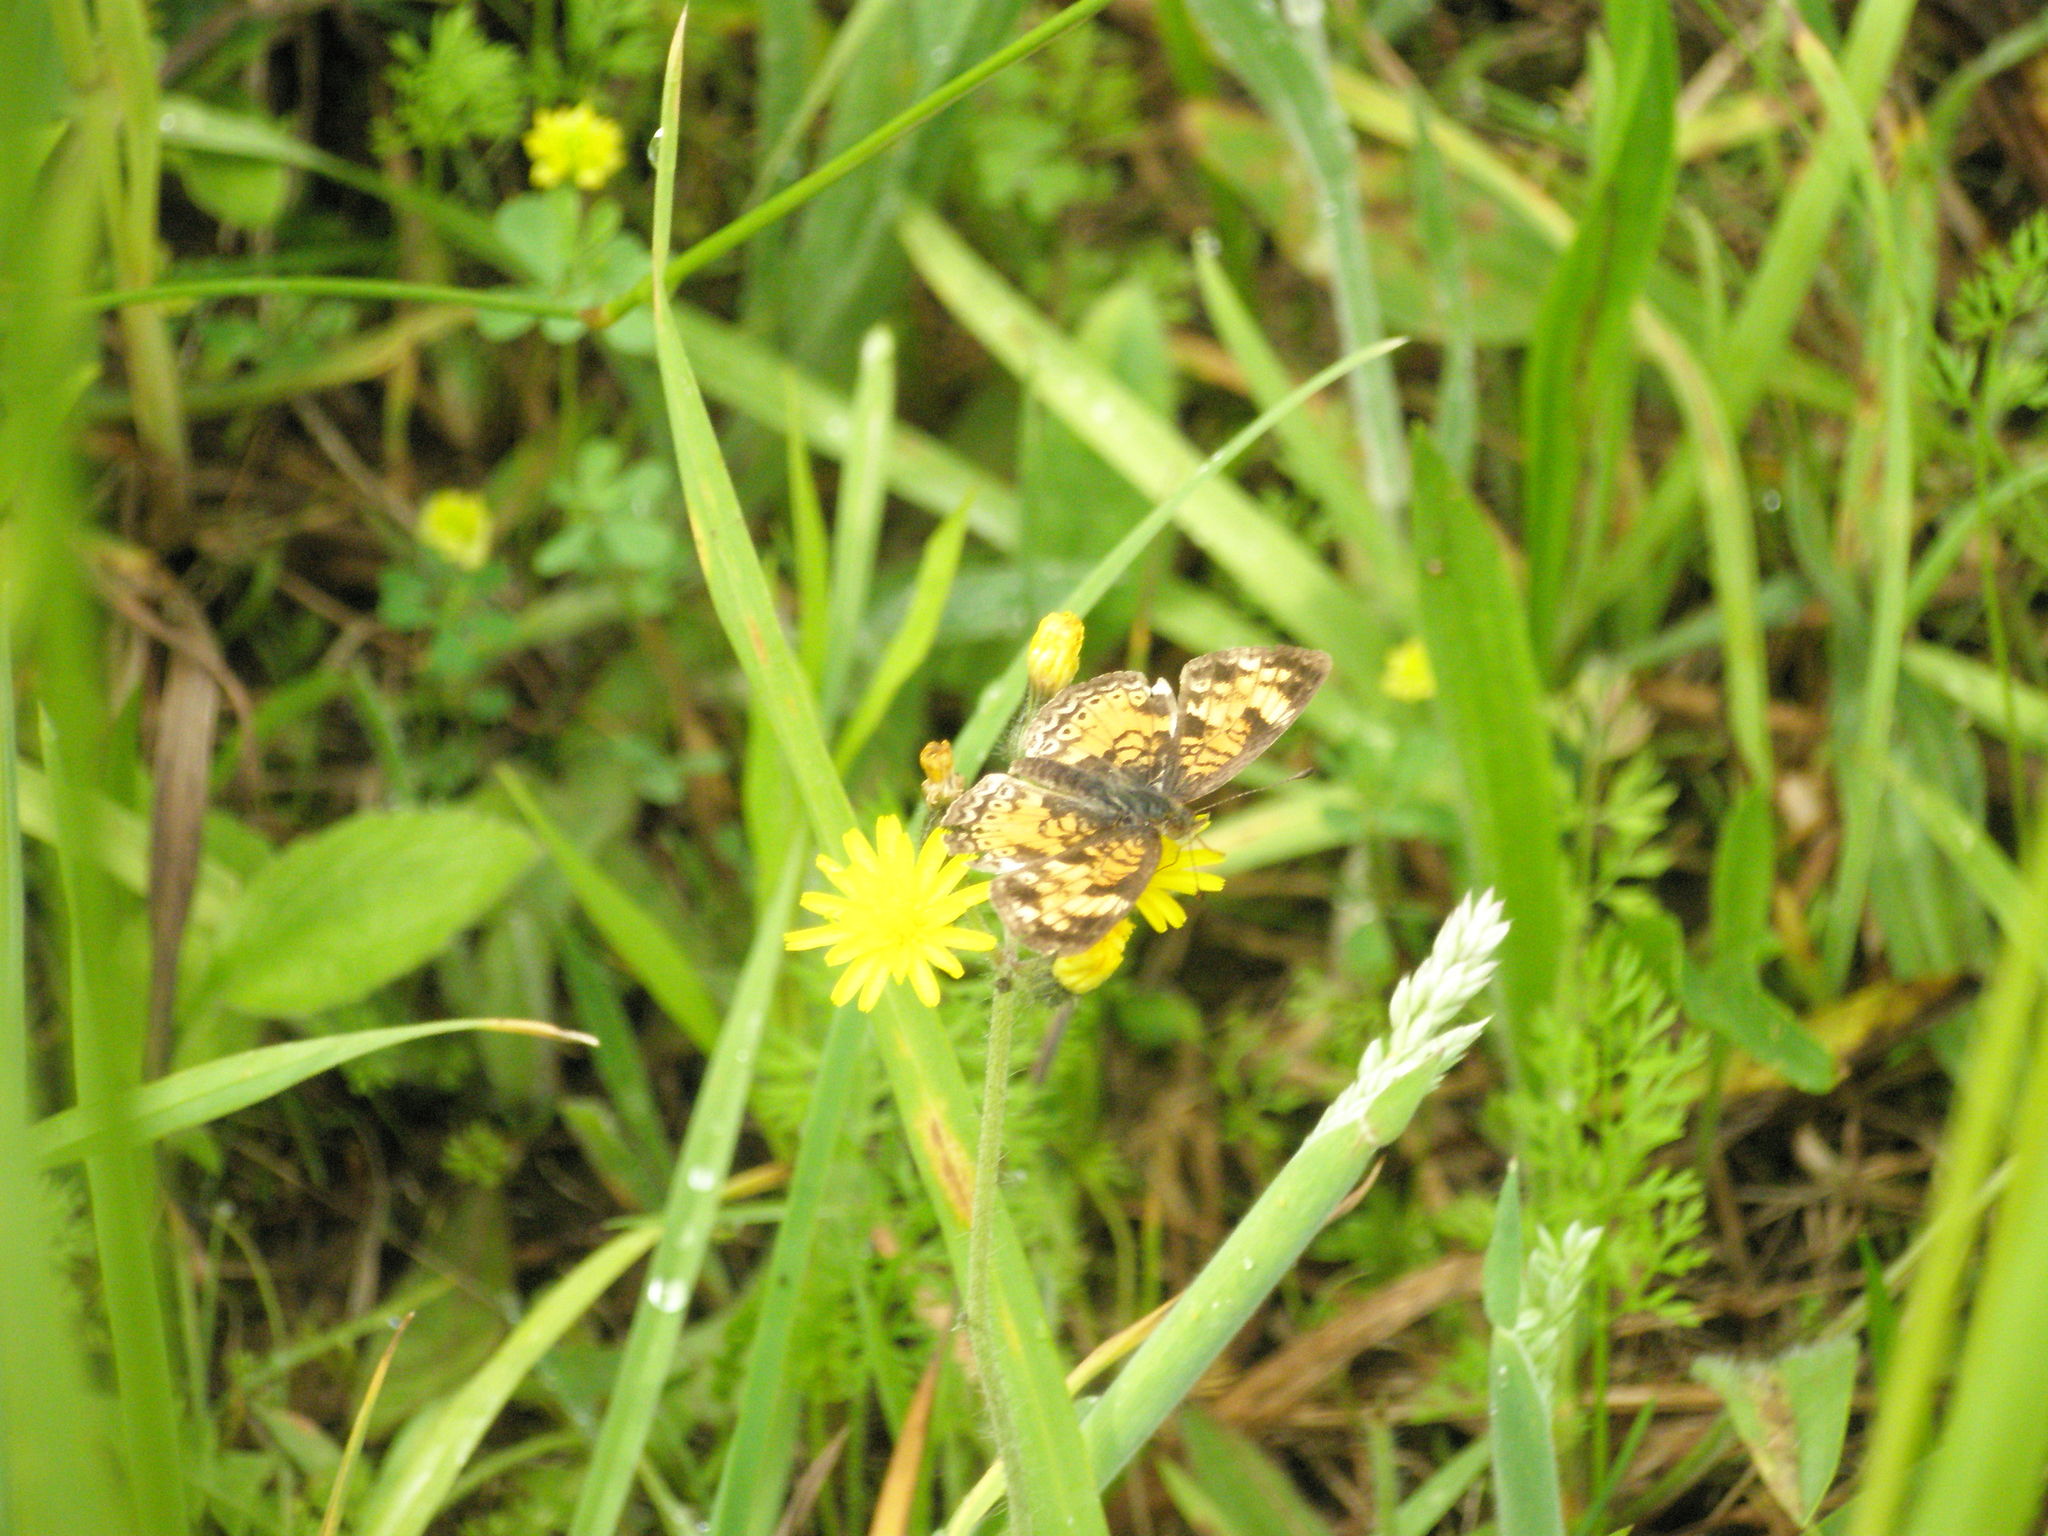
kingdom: Animalia
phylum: Arthropoda
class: Insecta
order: Lepidoptera
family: Nymphalidae
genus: Phyciodes
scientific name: Phyciodes tharos
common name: Pearl crescent
